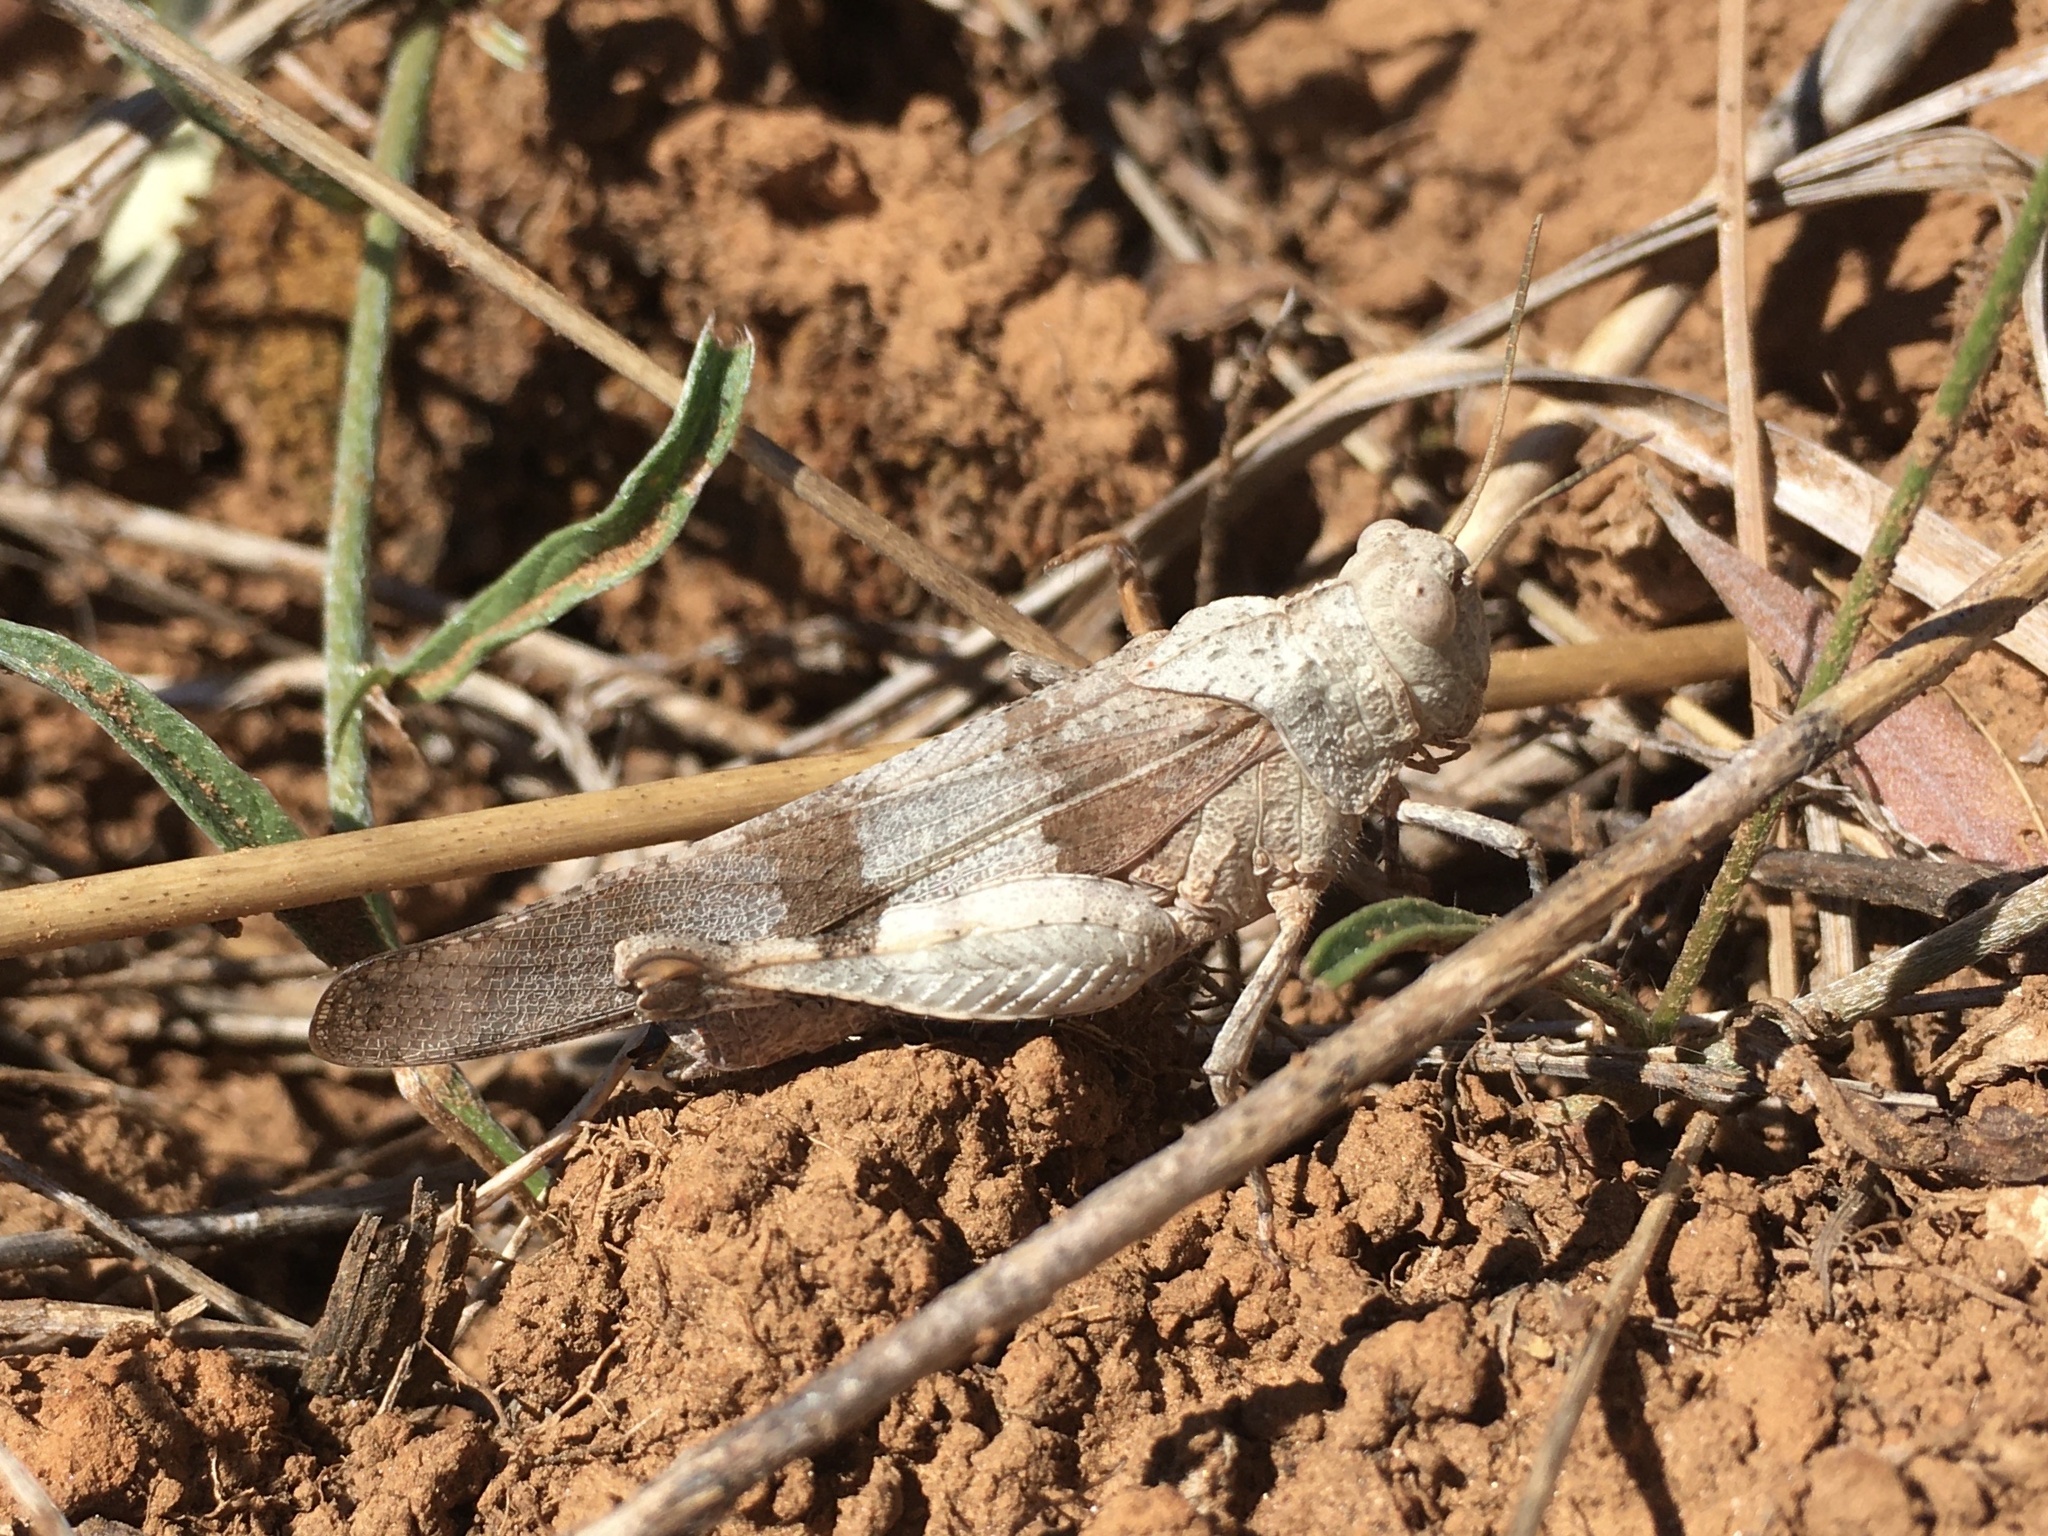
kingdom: Animalia
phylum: Arthropoda
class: Insecta
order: Orthoptera
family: Acrididae
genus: Oedipoda
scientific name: Oedipoda germanica
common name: Red band-winged grasshopper
